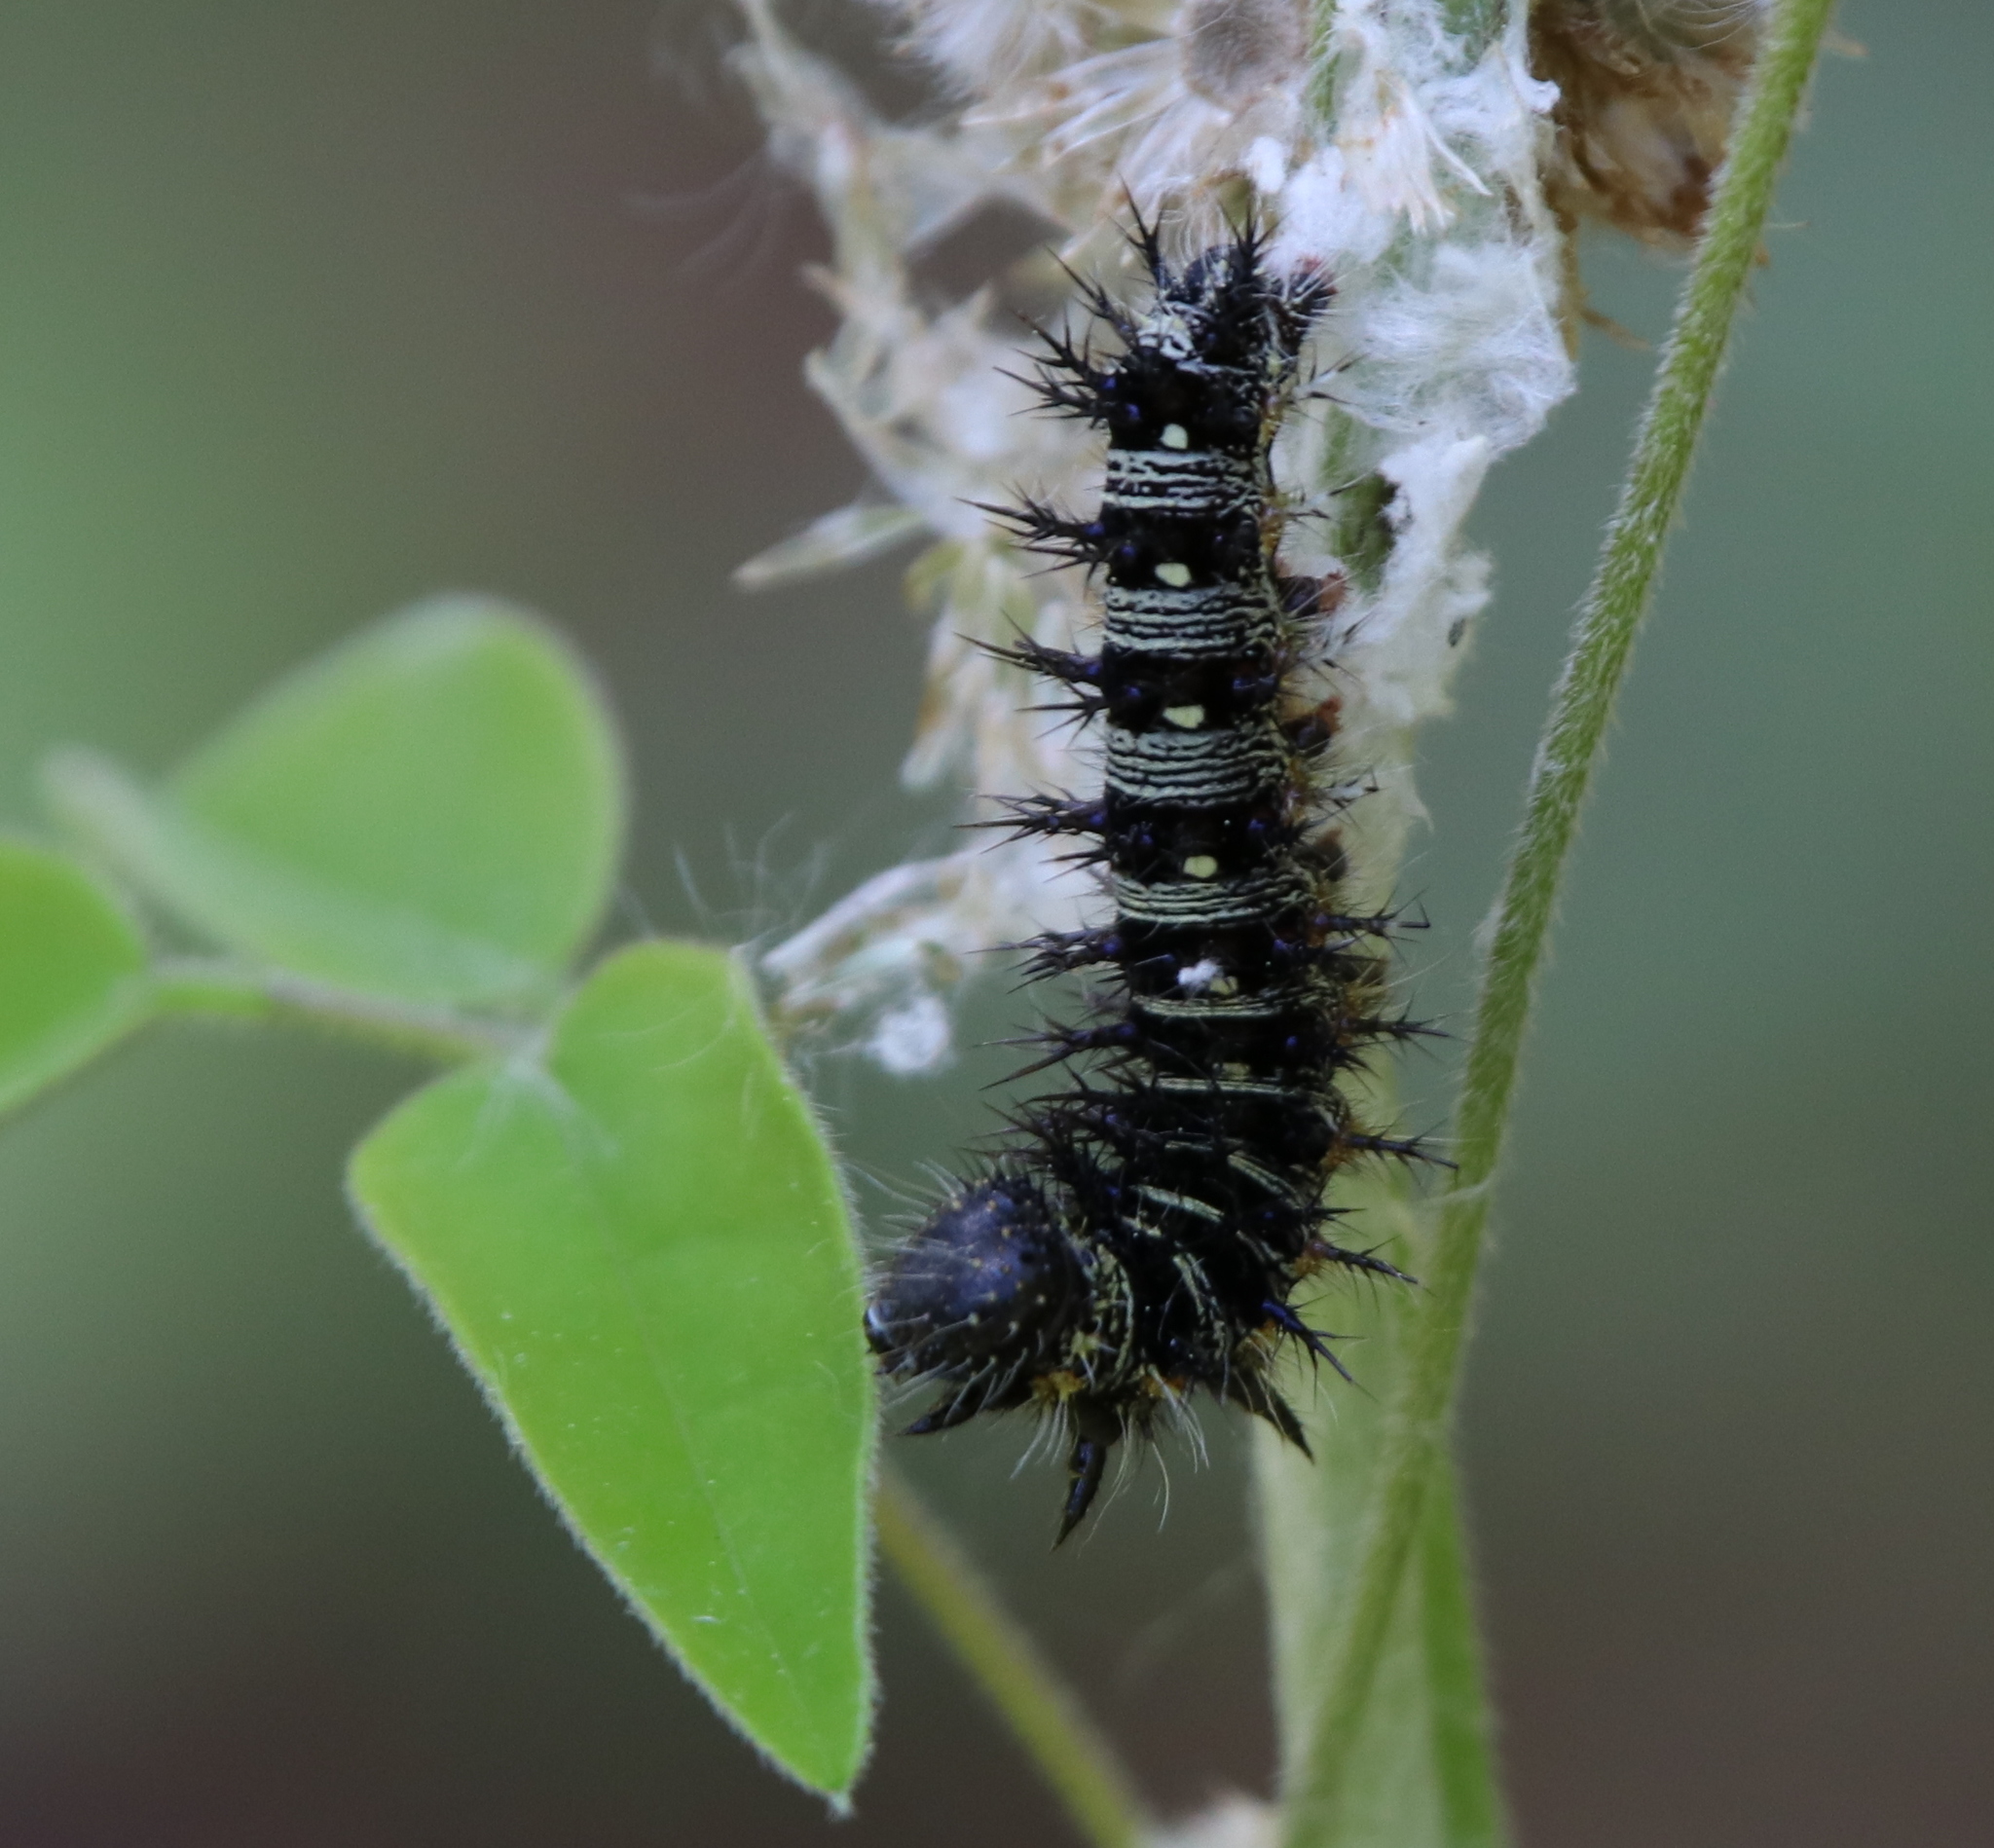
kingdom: Animalia
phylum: Arthropoda
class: Insecta
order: Lepidoptera
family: Nymphalidae
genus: Vanessa
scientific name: Vanessa virginiensis
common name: American lady
